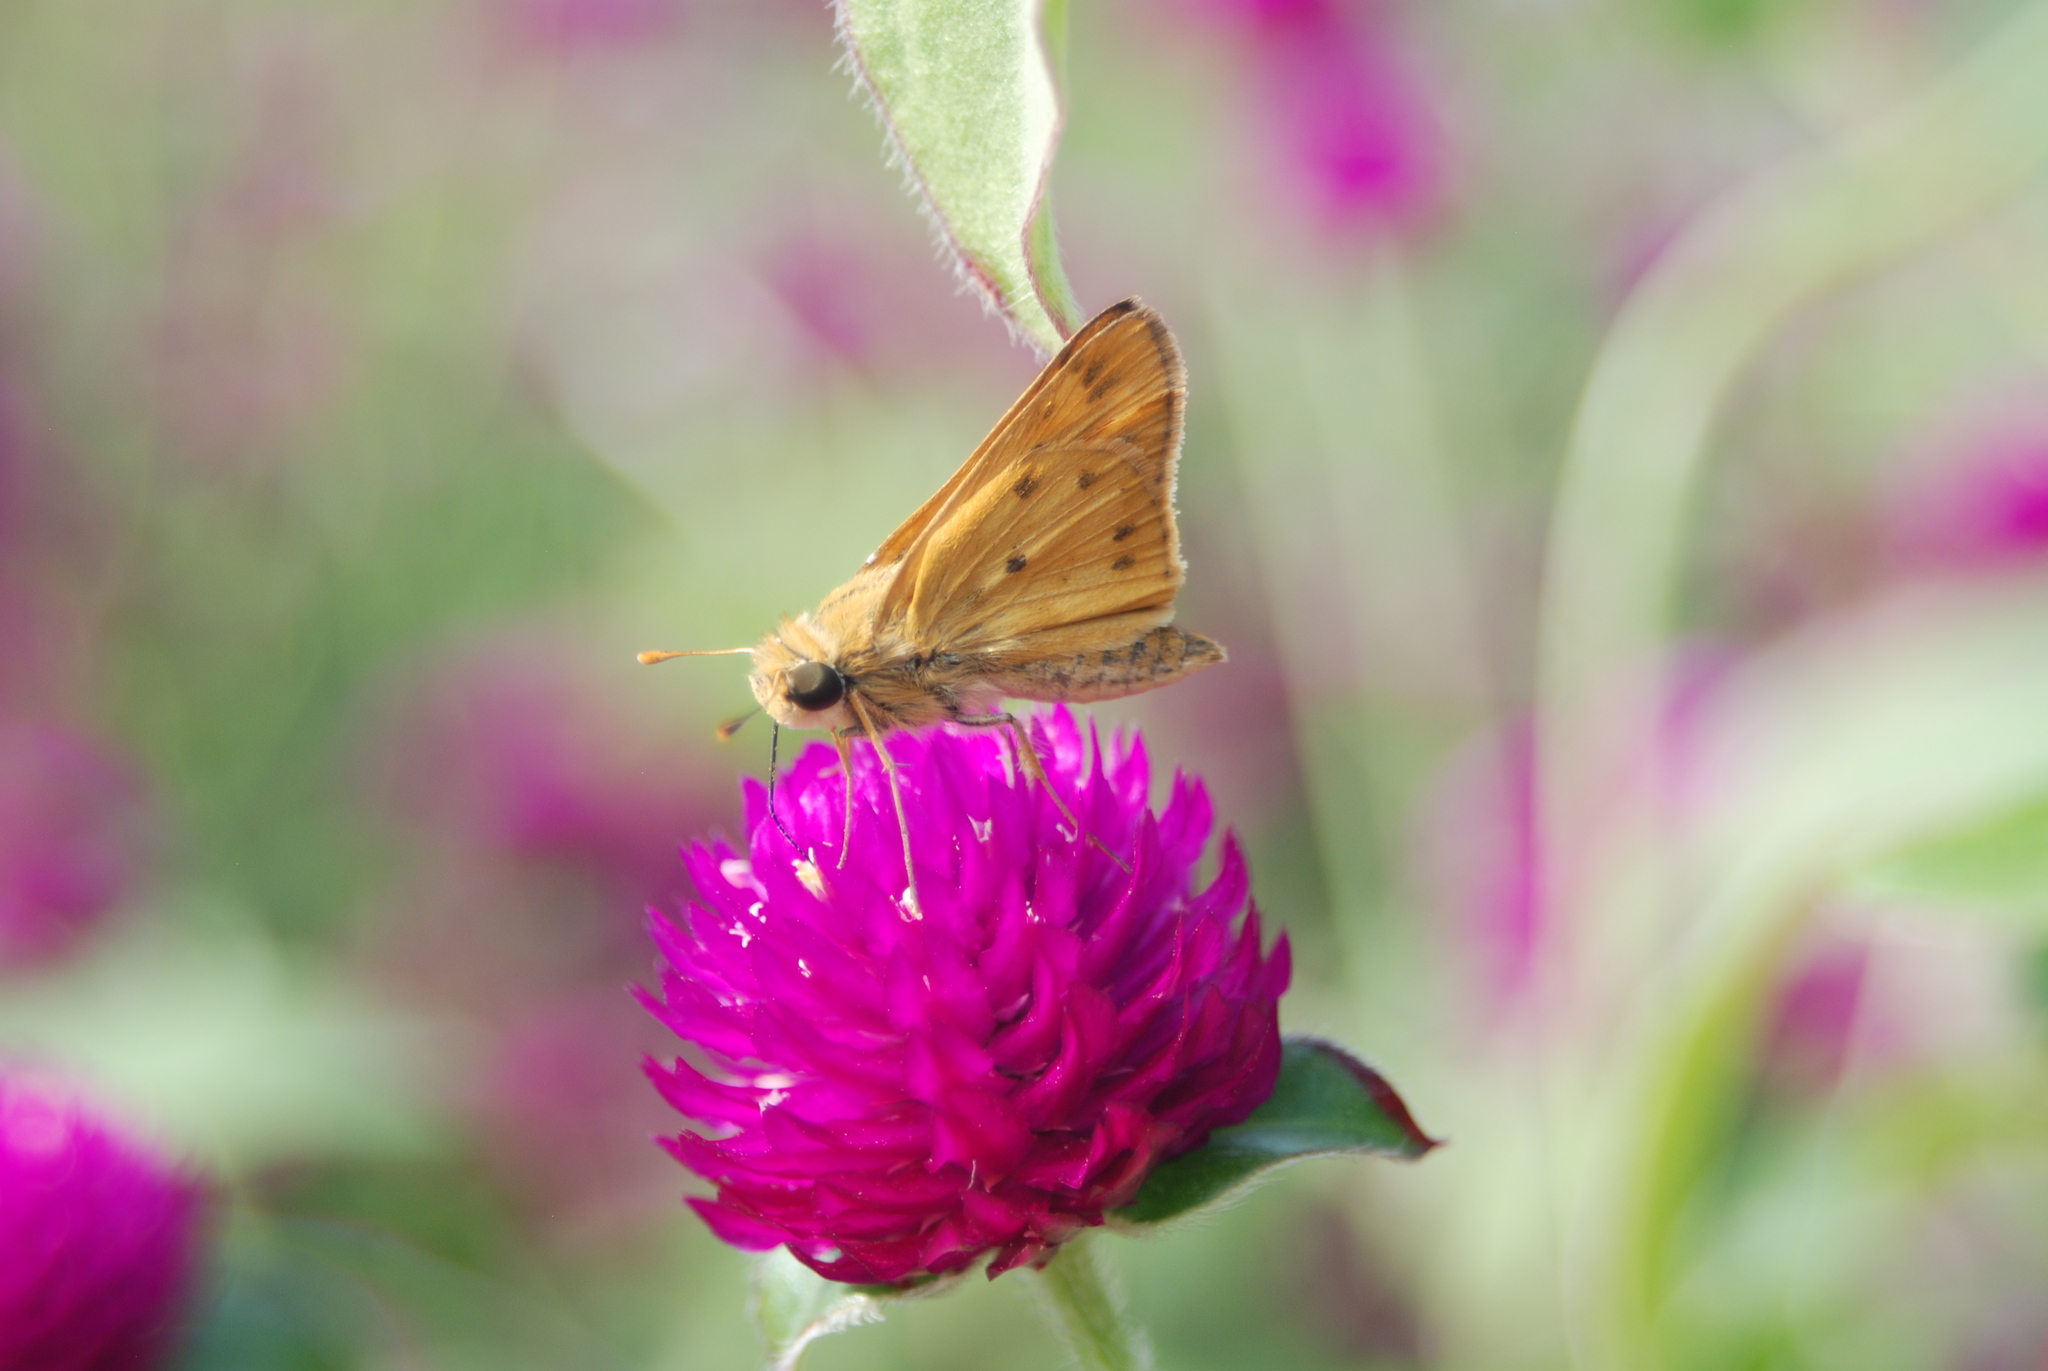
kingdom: Animalia
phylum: Arthropoda
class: Insecta
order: Lepidoptera
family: Hesperiidae
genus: Hylephila
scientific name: Hylephila phyleus
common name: Fiery skipper
